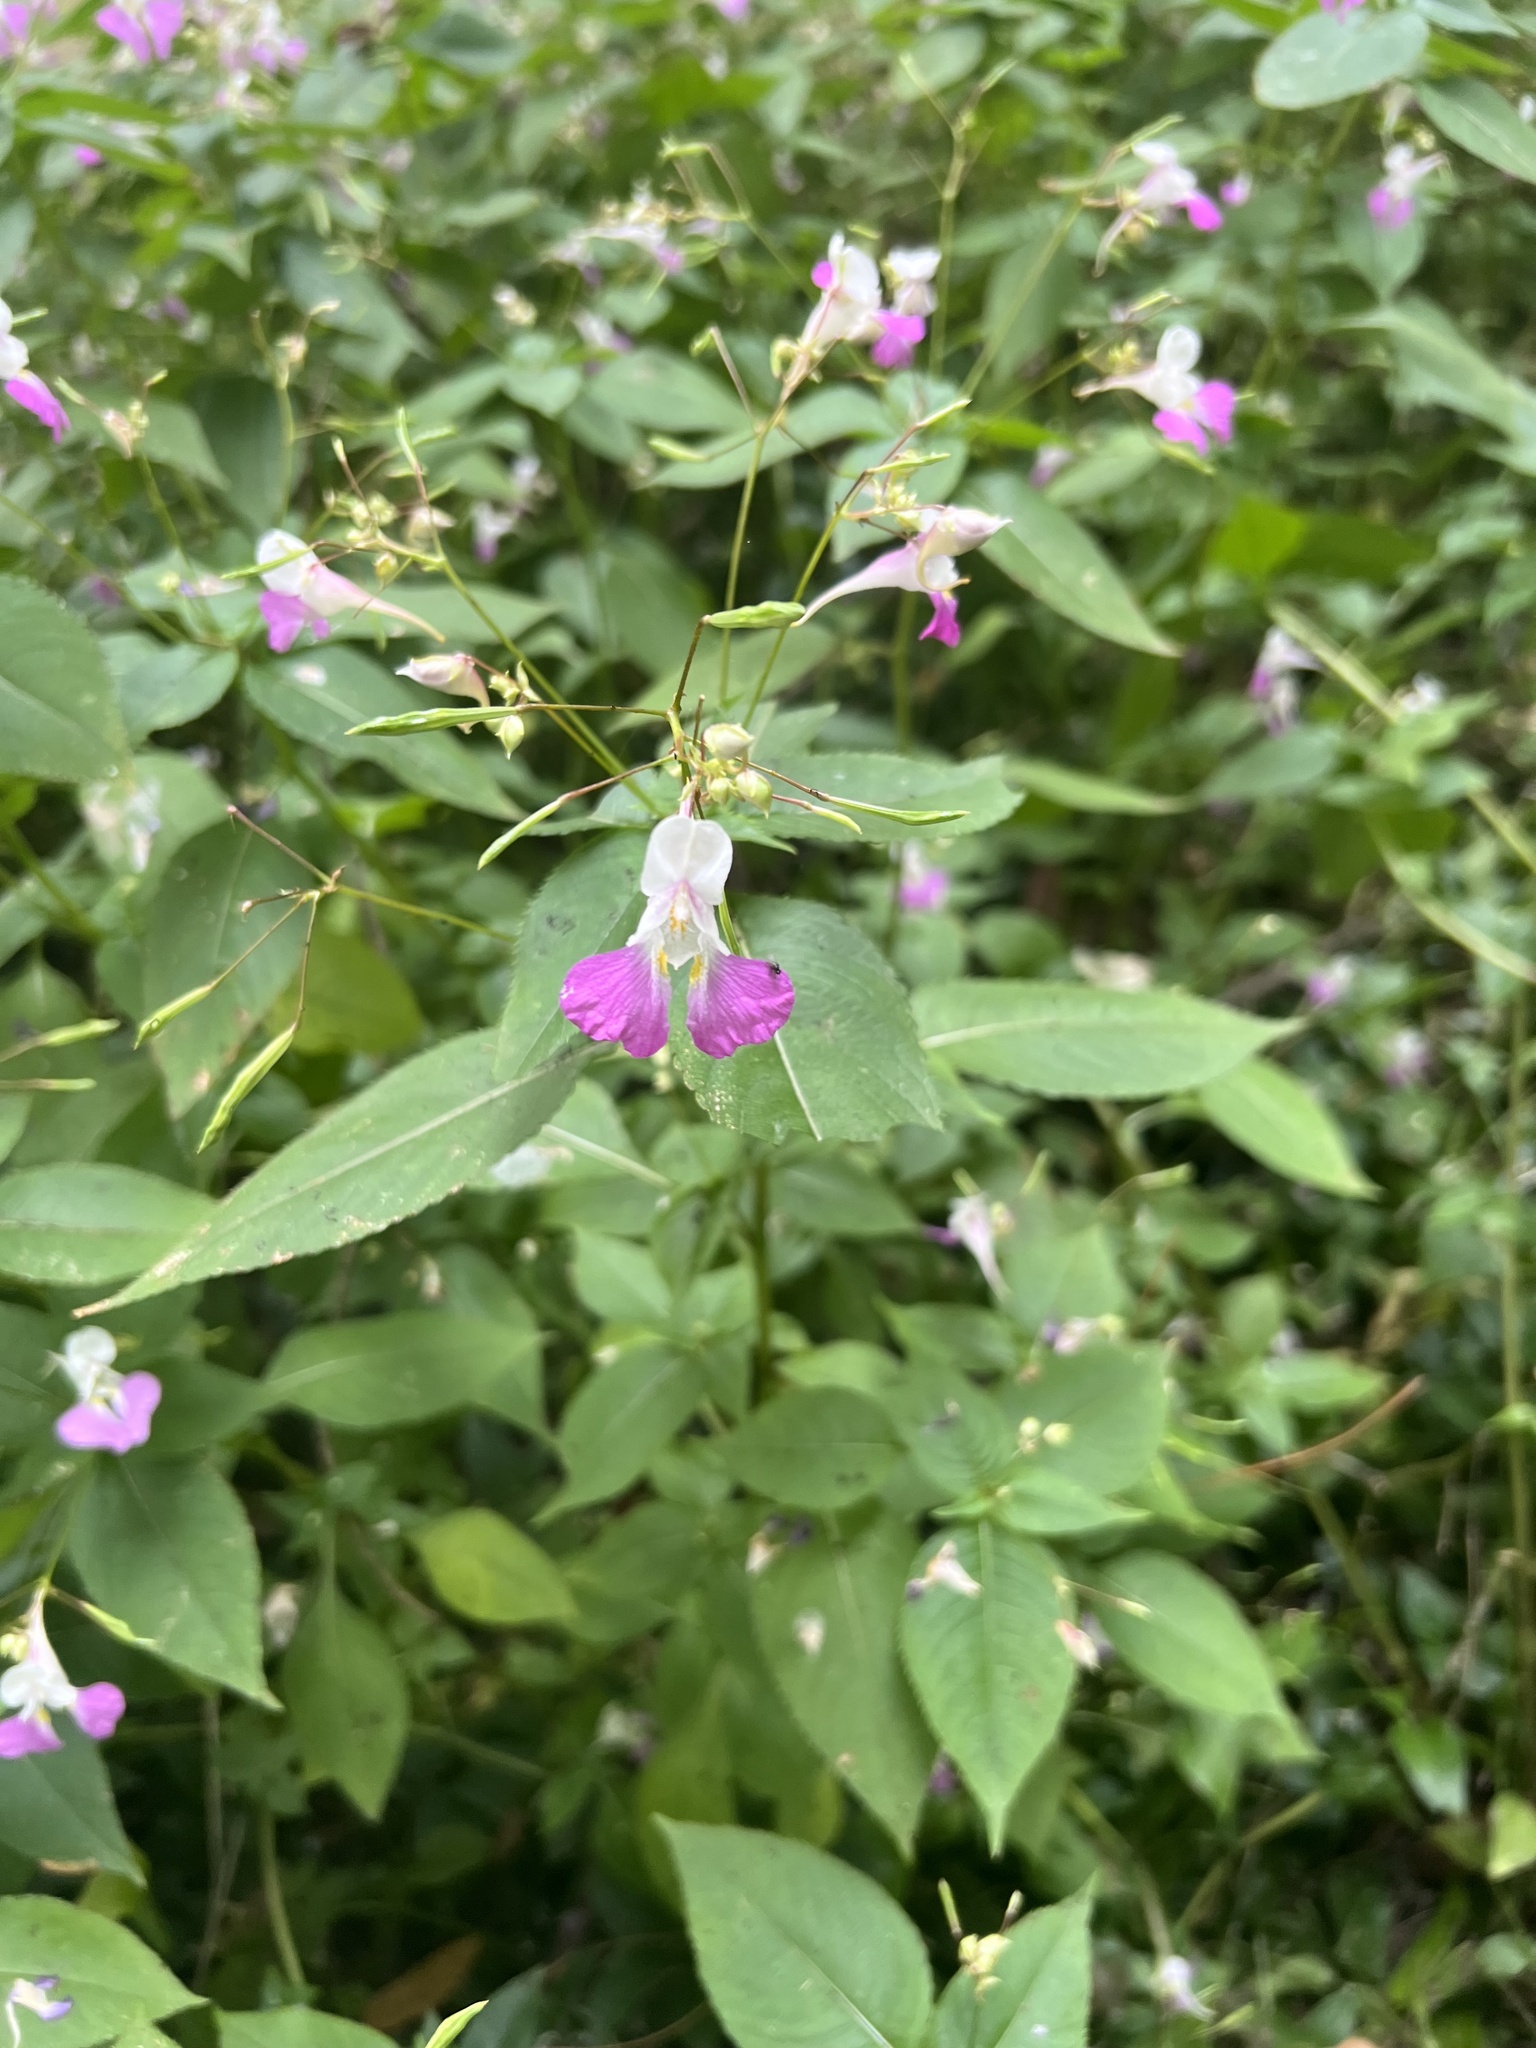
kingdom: Plantae
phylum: Tracheophyta
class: Magnoliopsida
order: Ericales
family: Balsaminaceae
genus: Impatiens
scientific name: Impatiens balfourii
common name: Balfour's touch-me-not
